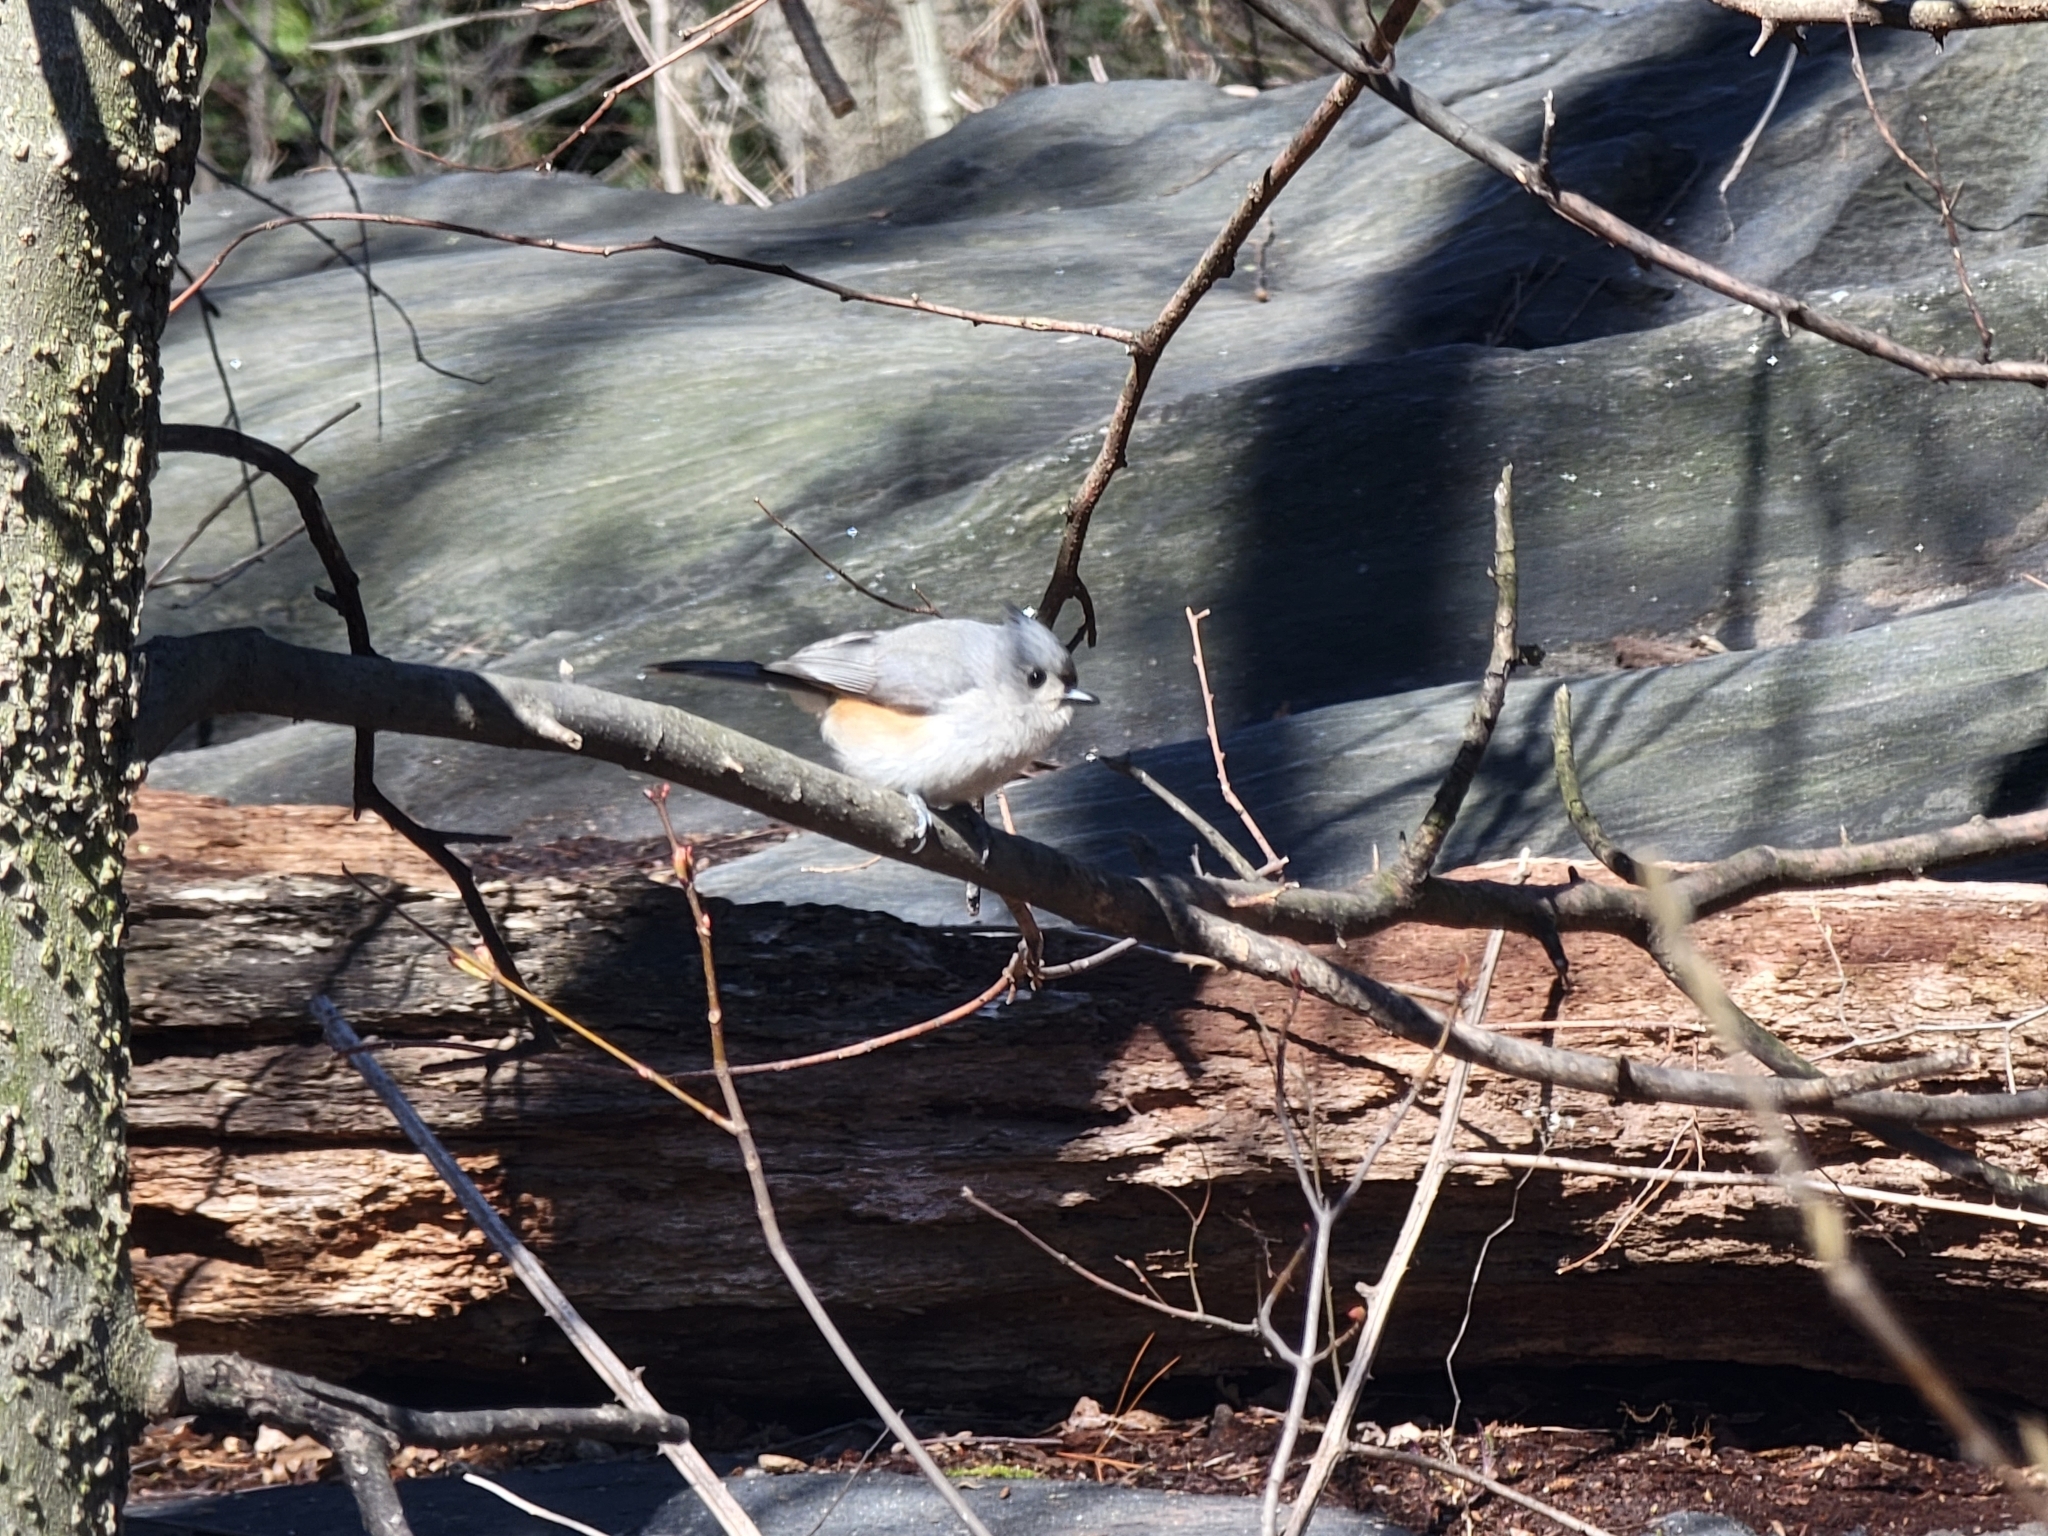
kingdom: Animalia
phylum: Chordata
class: Aves
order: Passeriformes
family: Paridae
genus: Baeolophus
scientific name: Baeolophus bicolor
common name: Tufted titmouse
